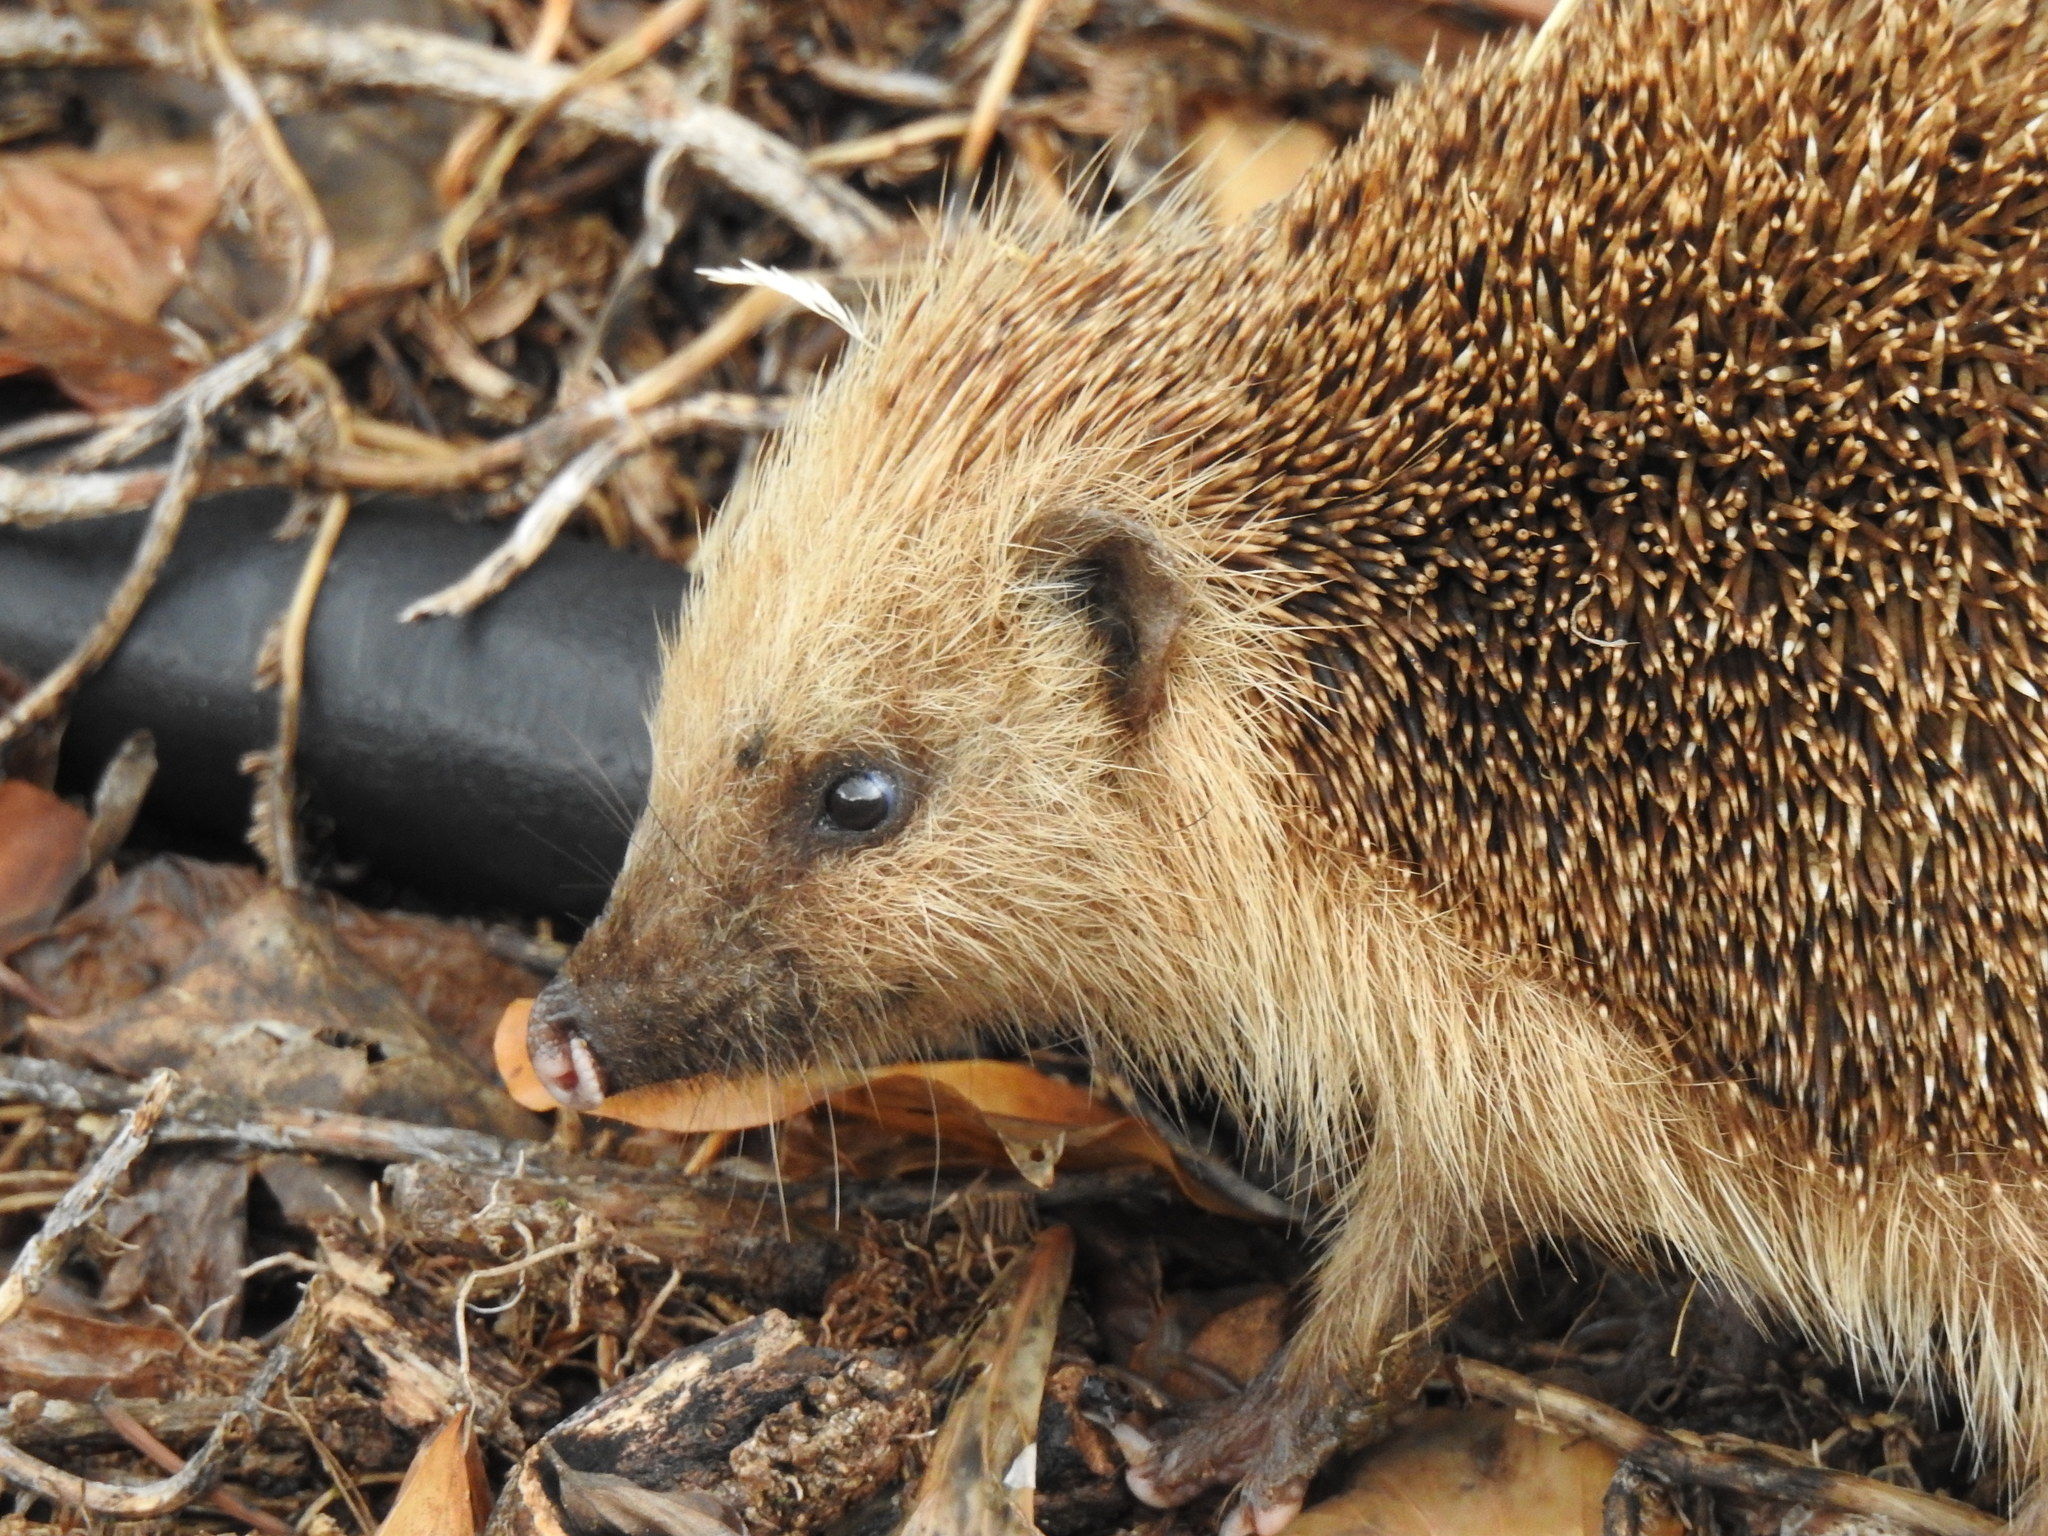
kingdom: Animalia
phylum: Chordata
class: Mammalia
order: Erinaceomorpha
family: Erinaceidae
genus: Erinaceus
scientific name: Erinaceus europaeus
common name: West european hedgehog
